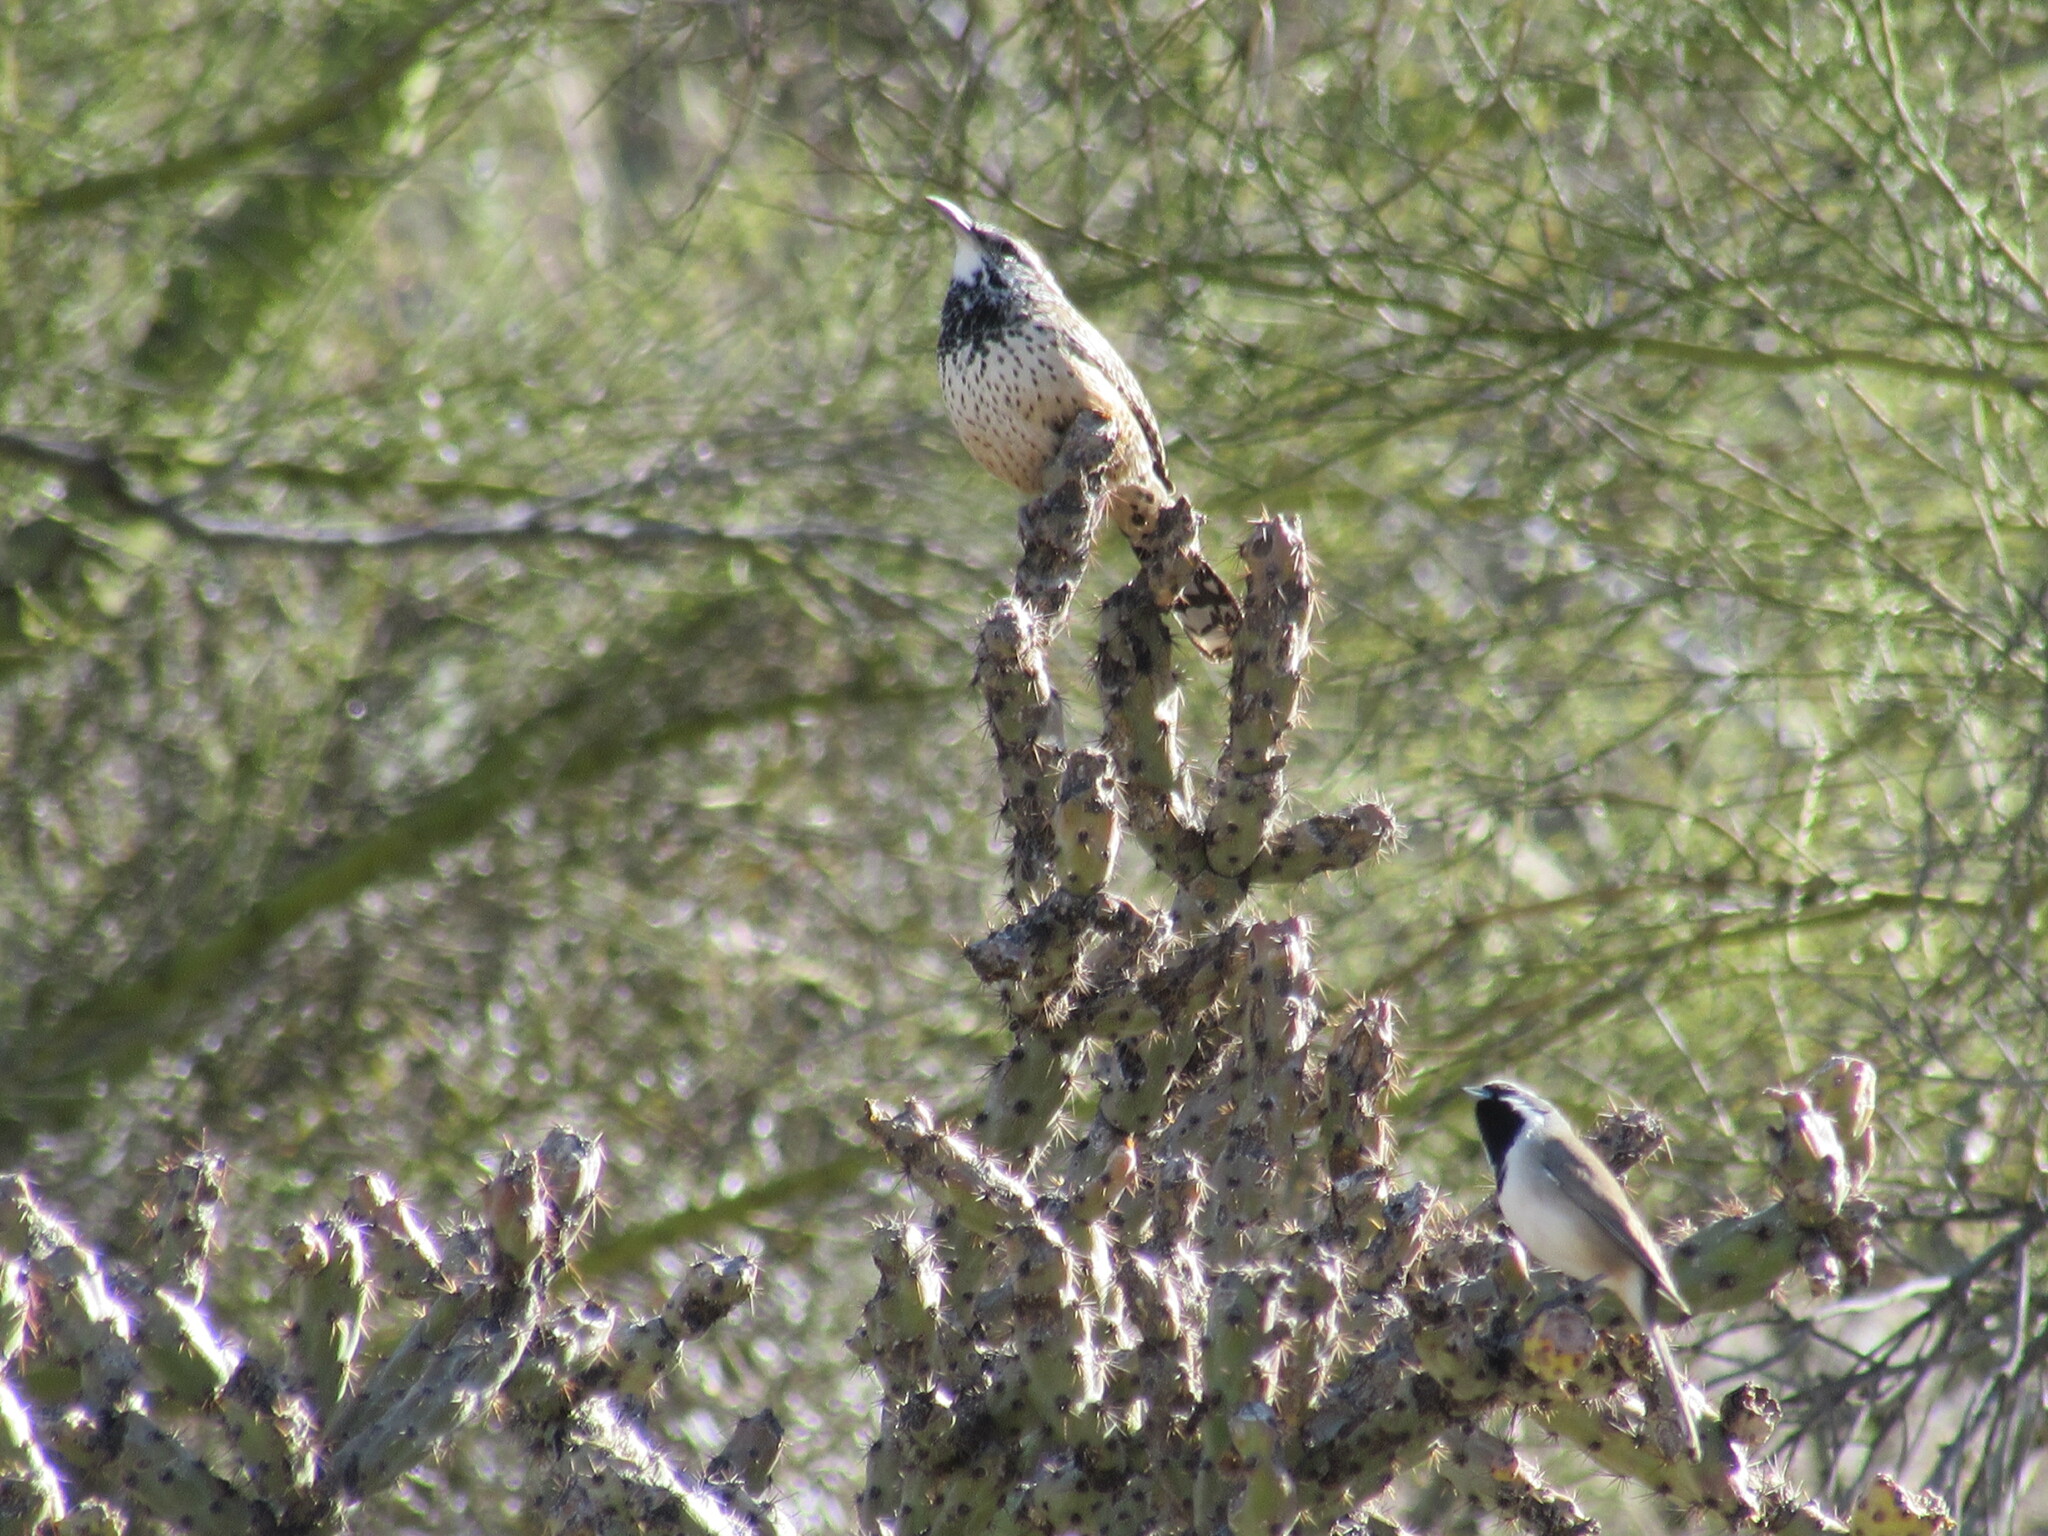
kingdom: Animalia
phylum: Chordata
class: Aves
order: Passeriformes
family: Troglodytidae
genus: Campylorhynchus
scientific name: Campylorhynchus brunneicapillus
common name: Cactus wren
